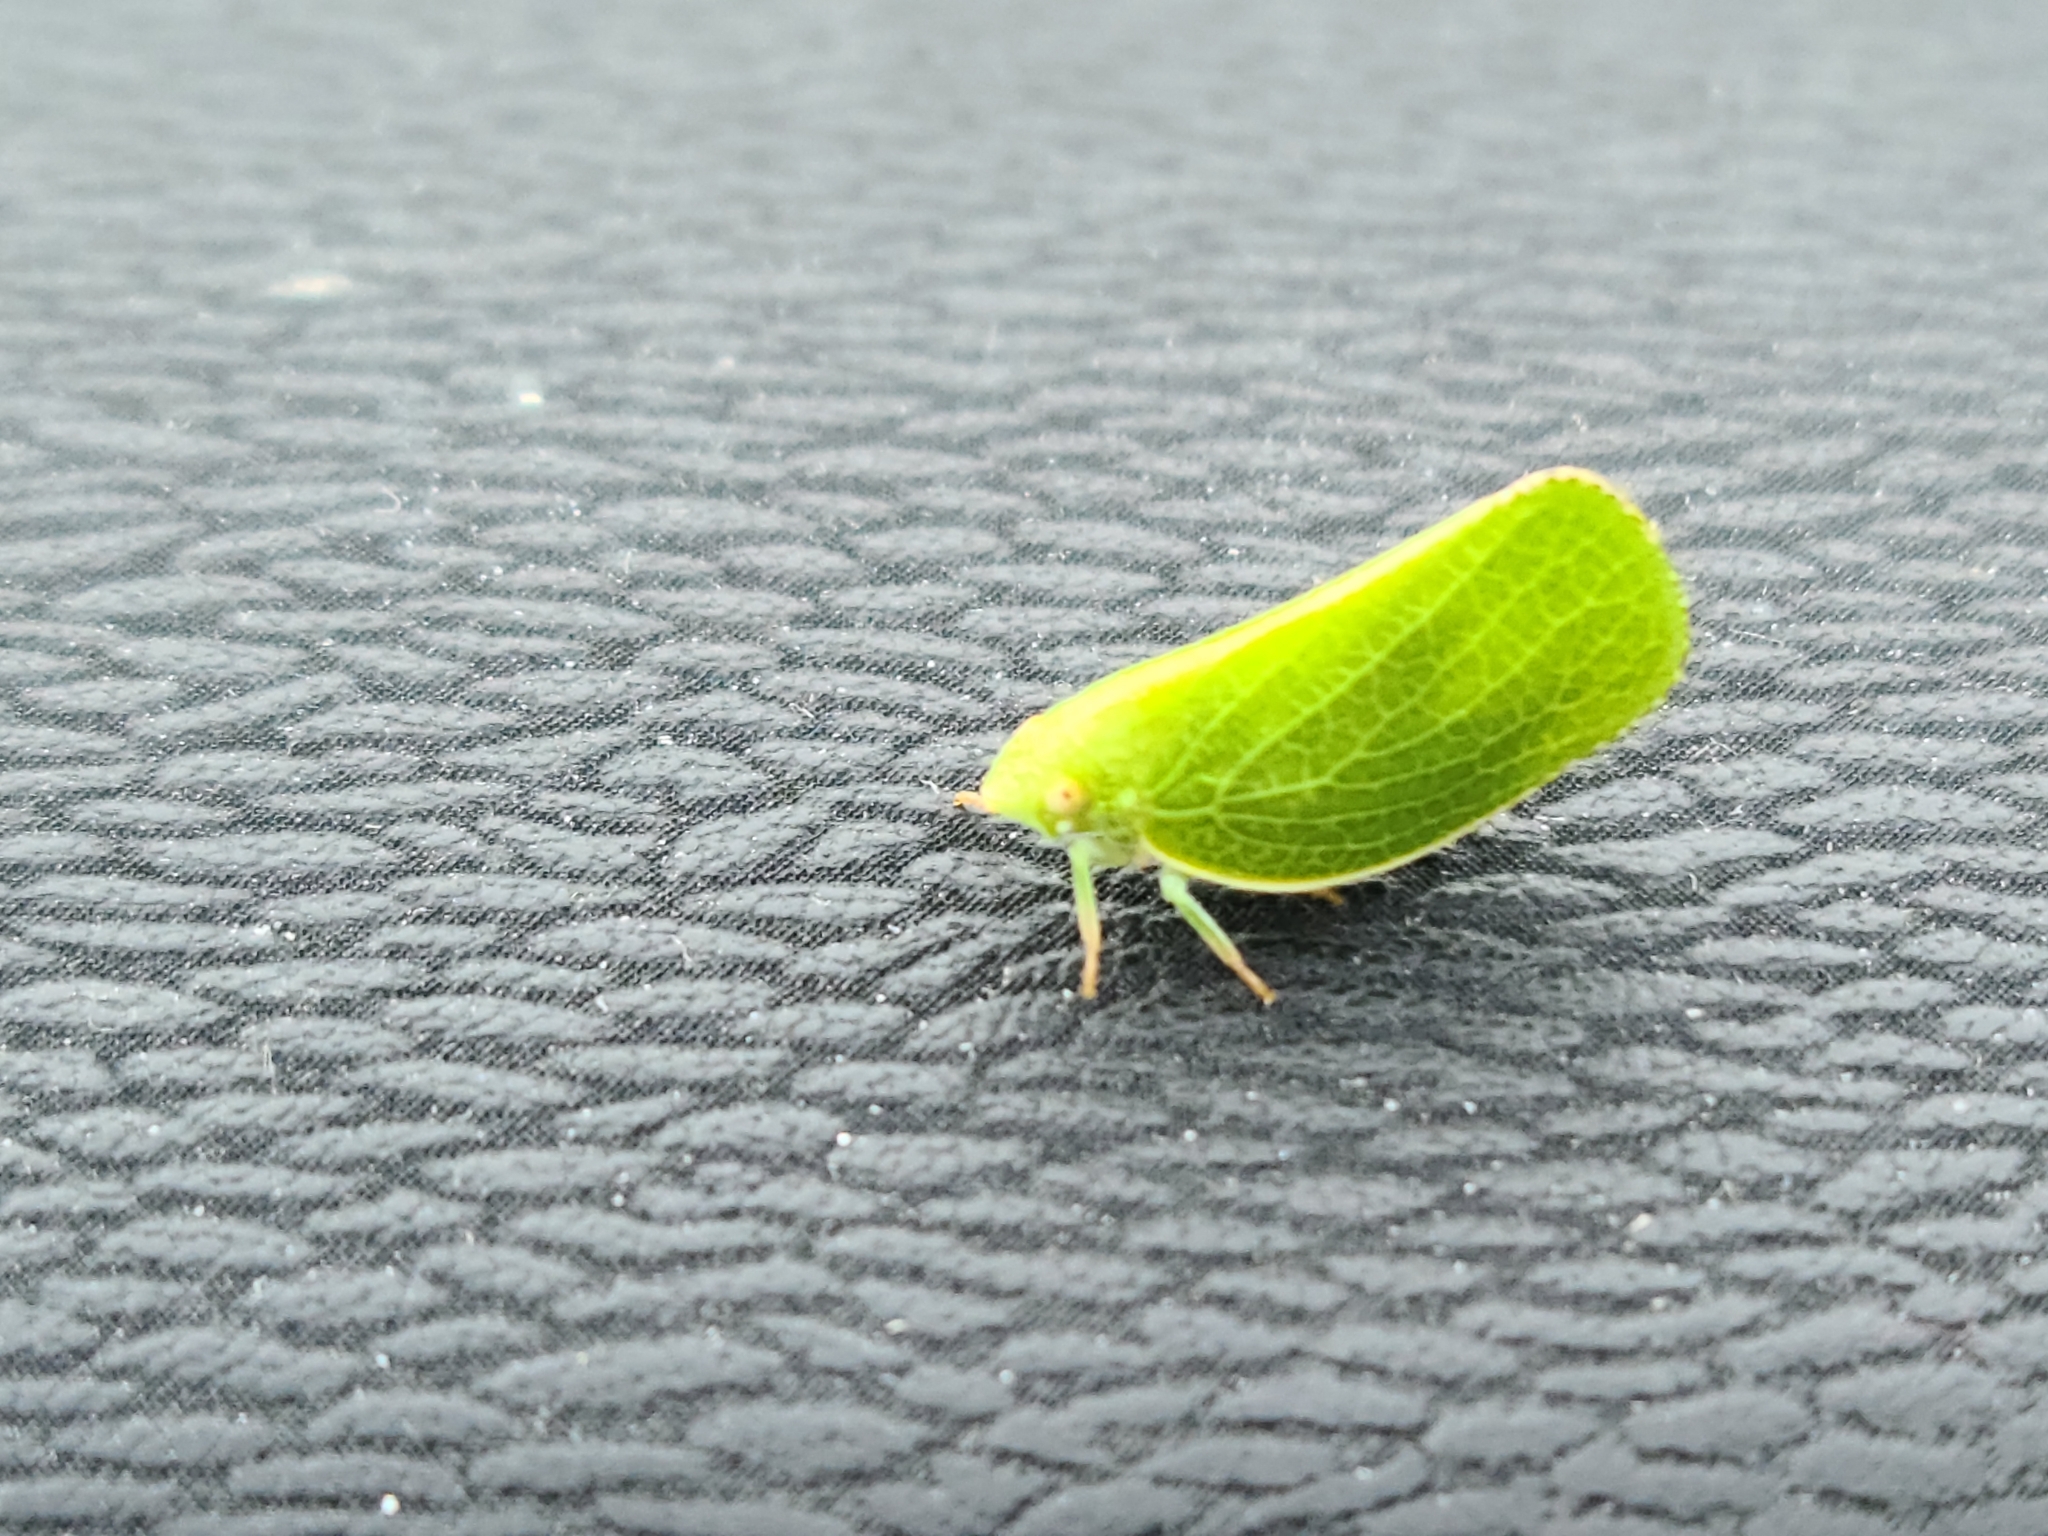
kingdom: Animalia
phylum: Arthropoda
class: Insecta
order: Hemiptera
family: Acanaloniidae
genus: Acanalonia
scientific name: Acanalonia conica
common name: Green cone-headed planthopper
